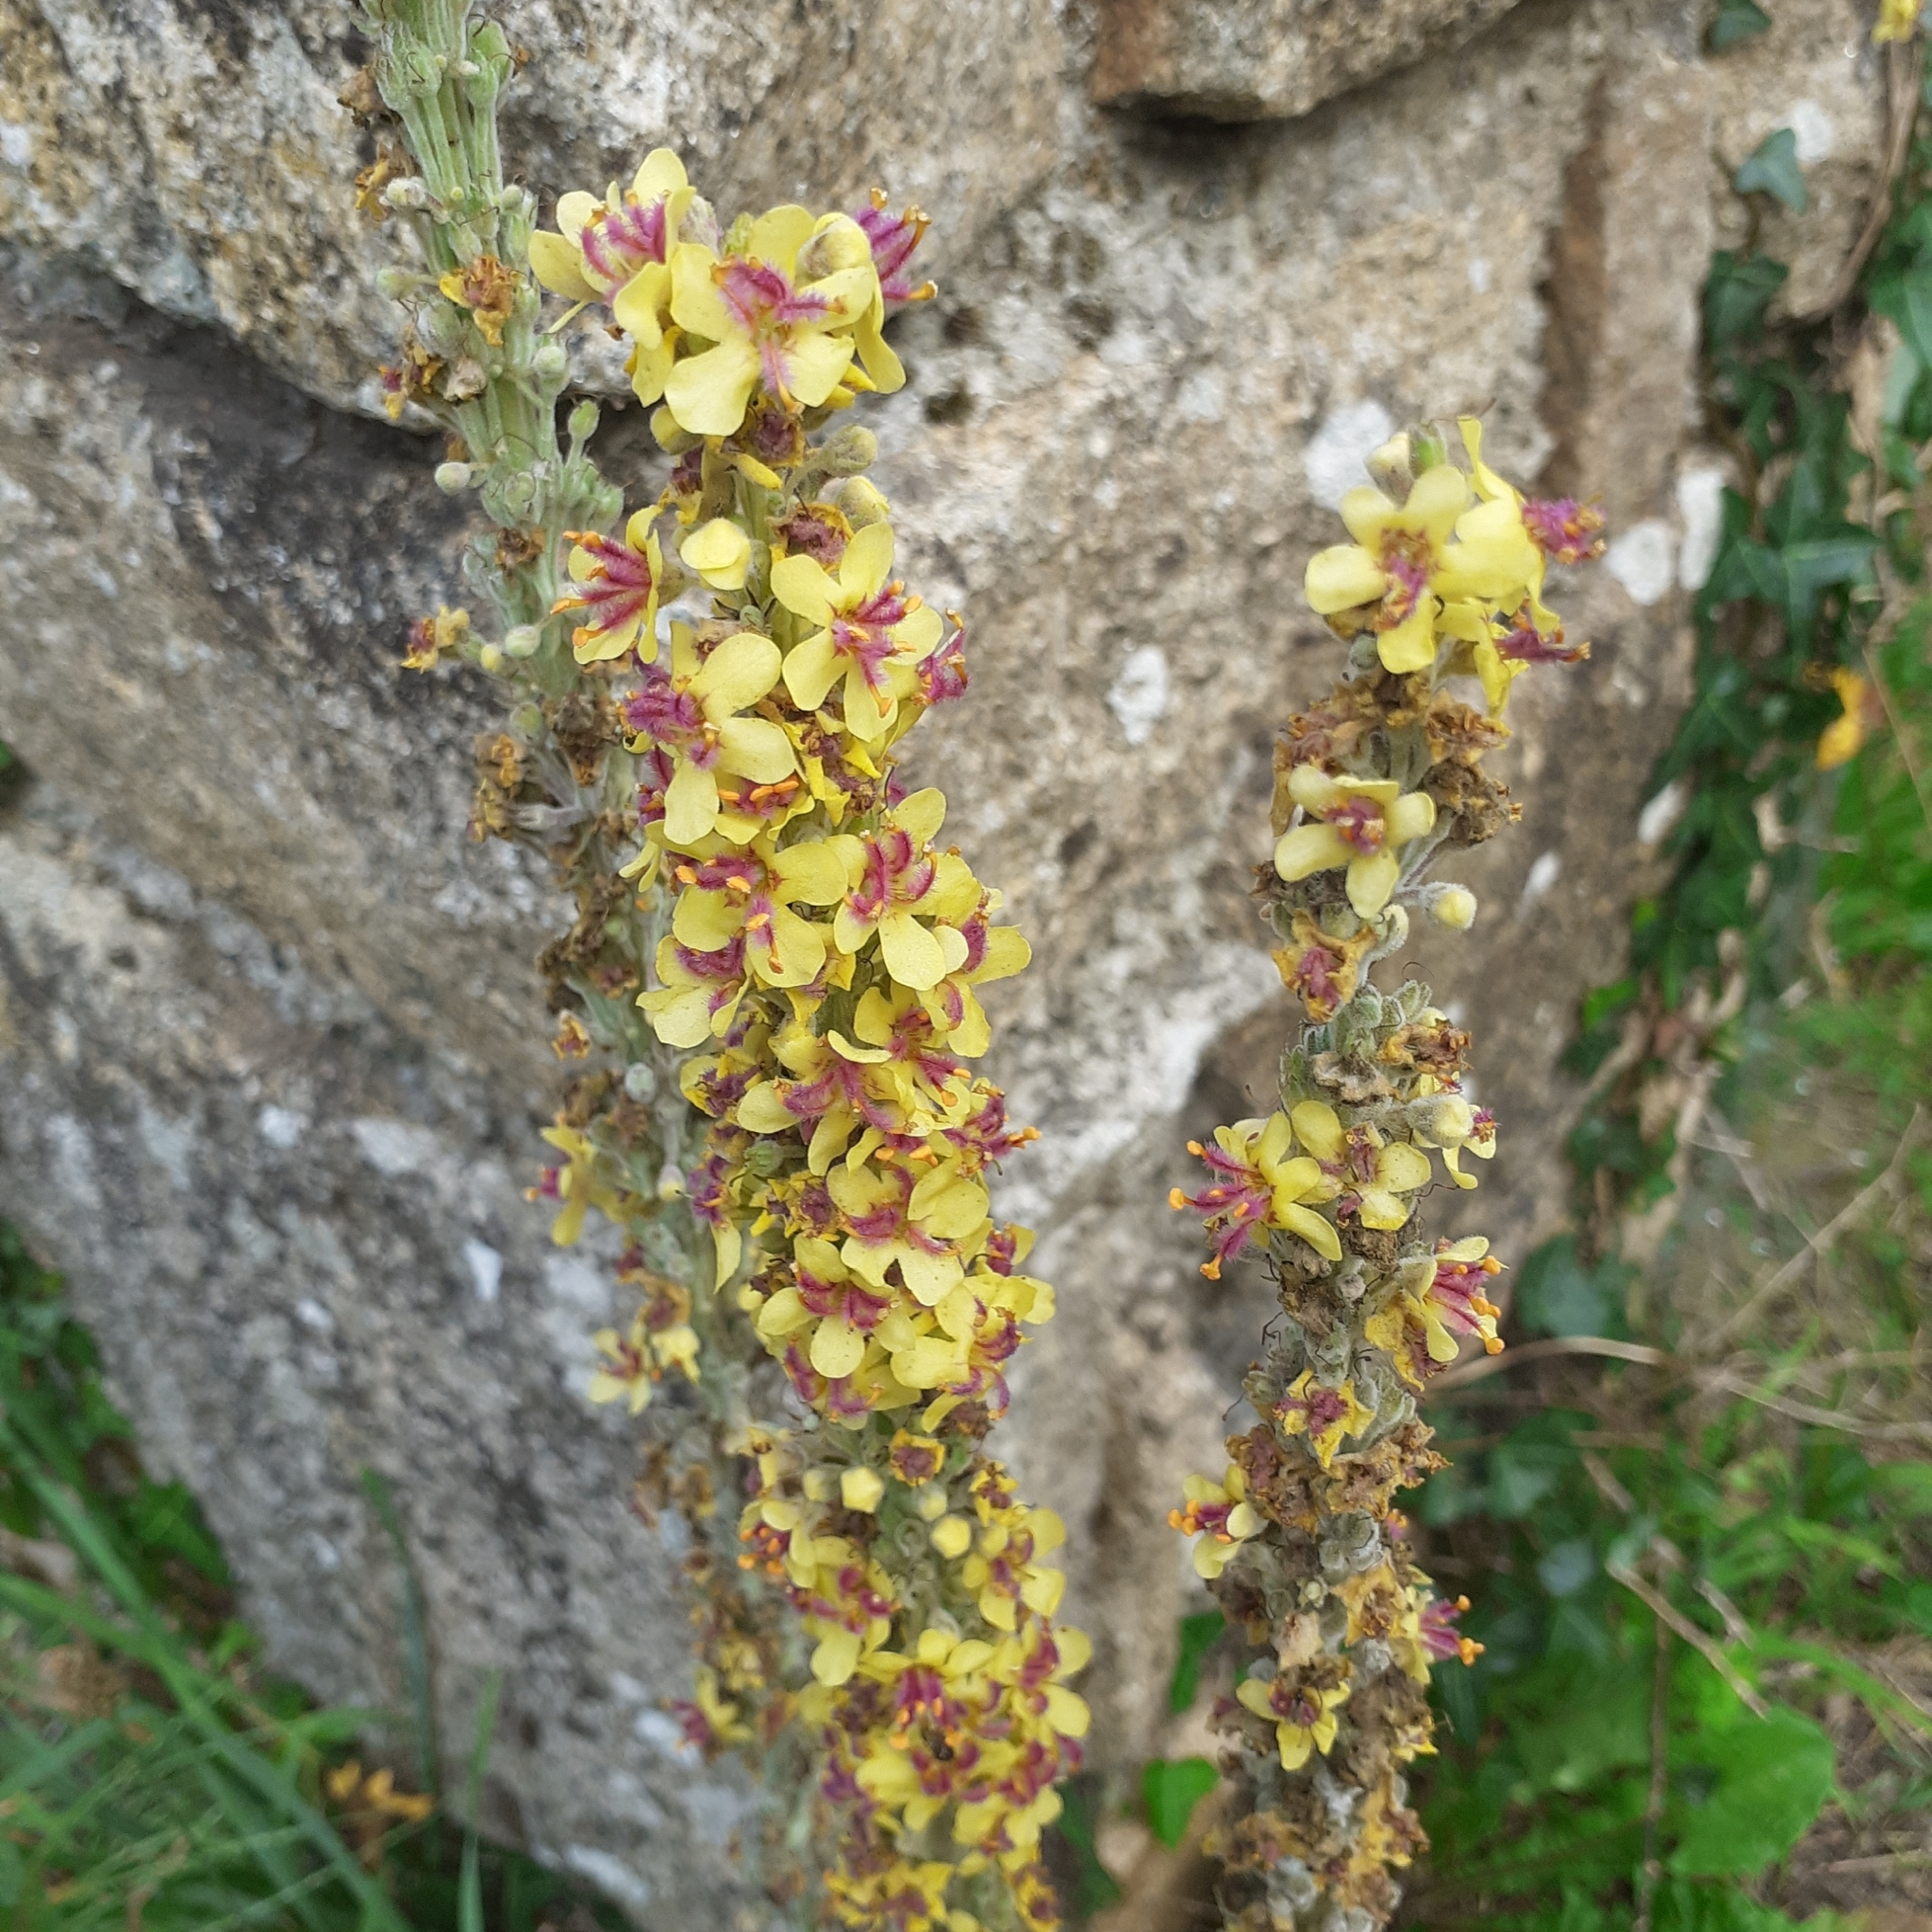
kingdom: Plantae
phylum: Tracheophyta
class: Magnoliopsida
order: Lamiales
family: Scrophulariaceae
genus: Verbascum
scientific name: Verbascum nigrum
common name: Dark mullein
